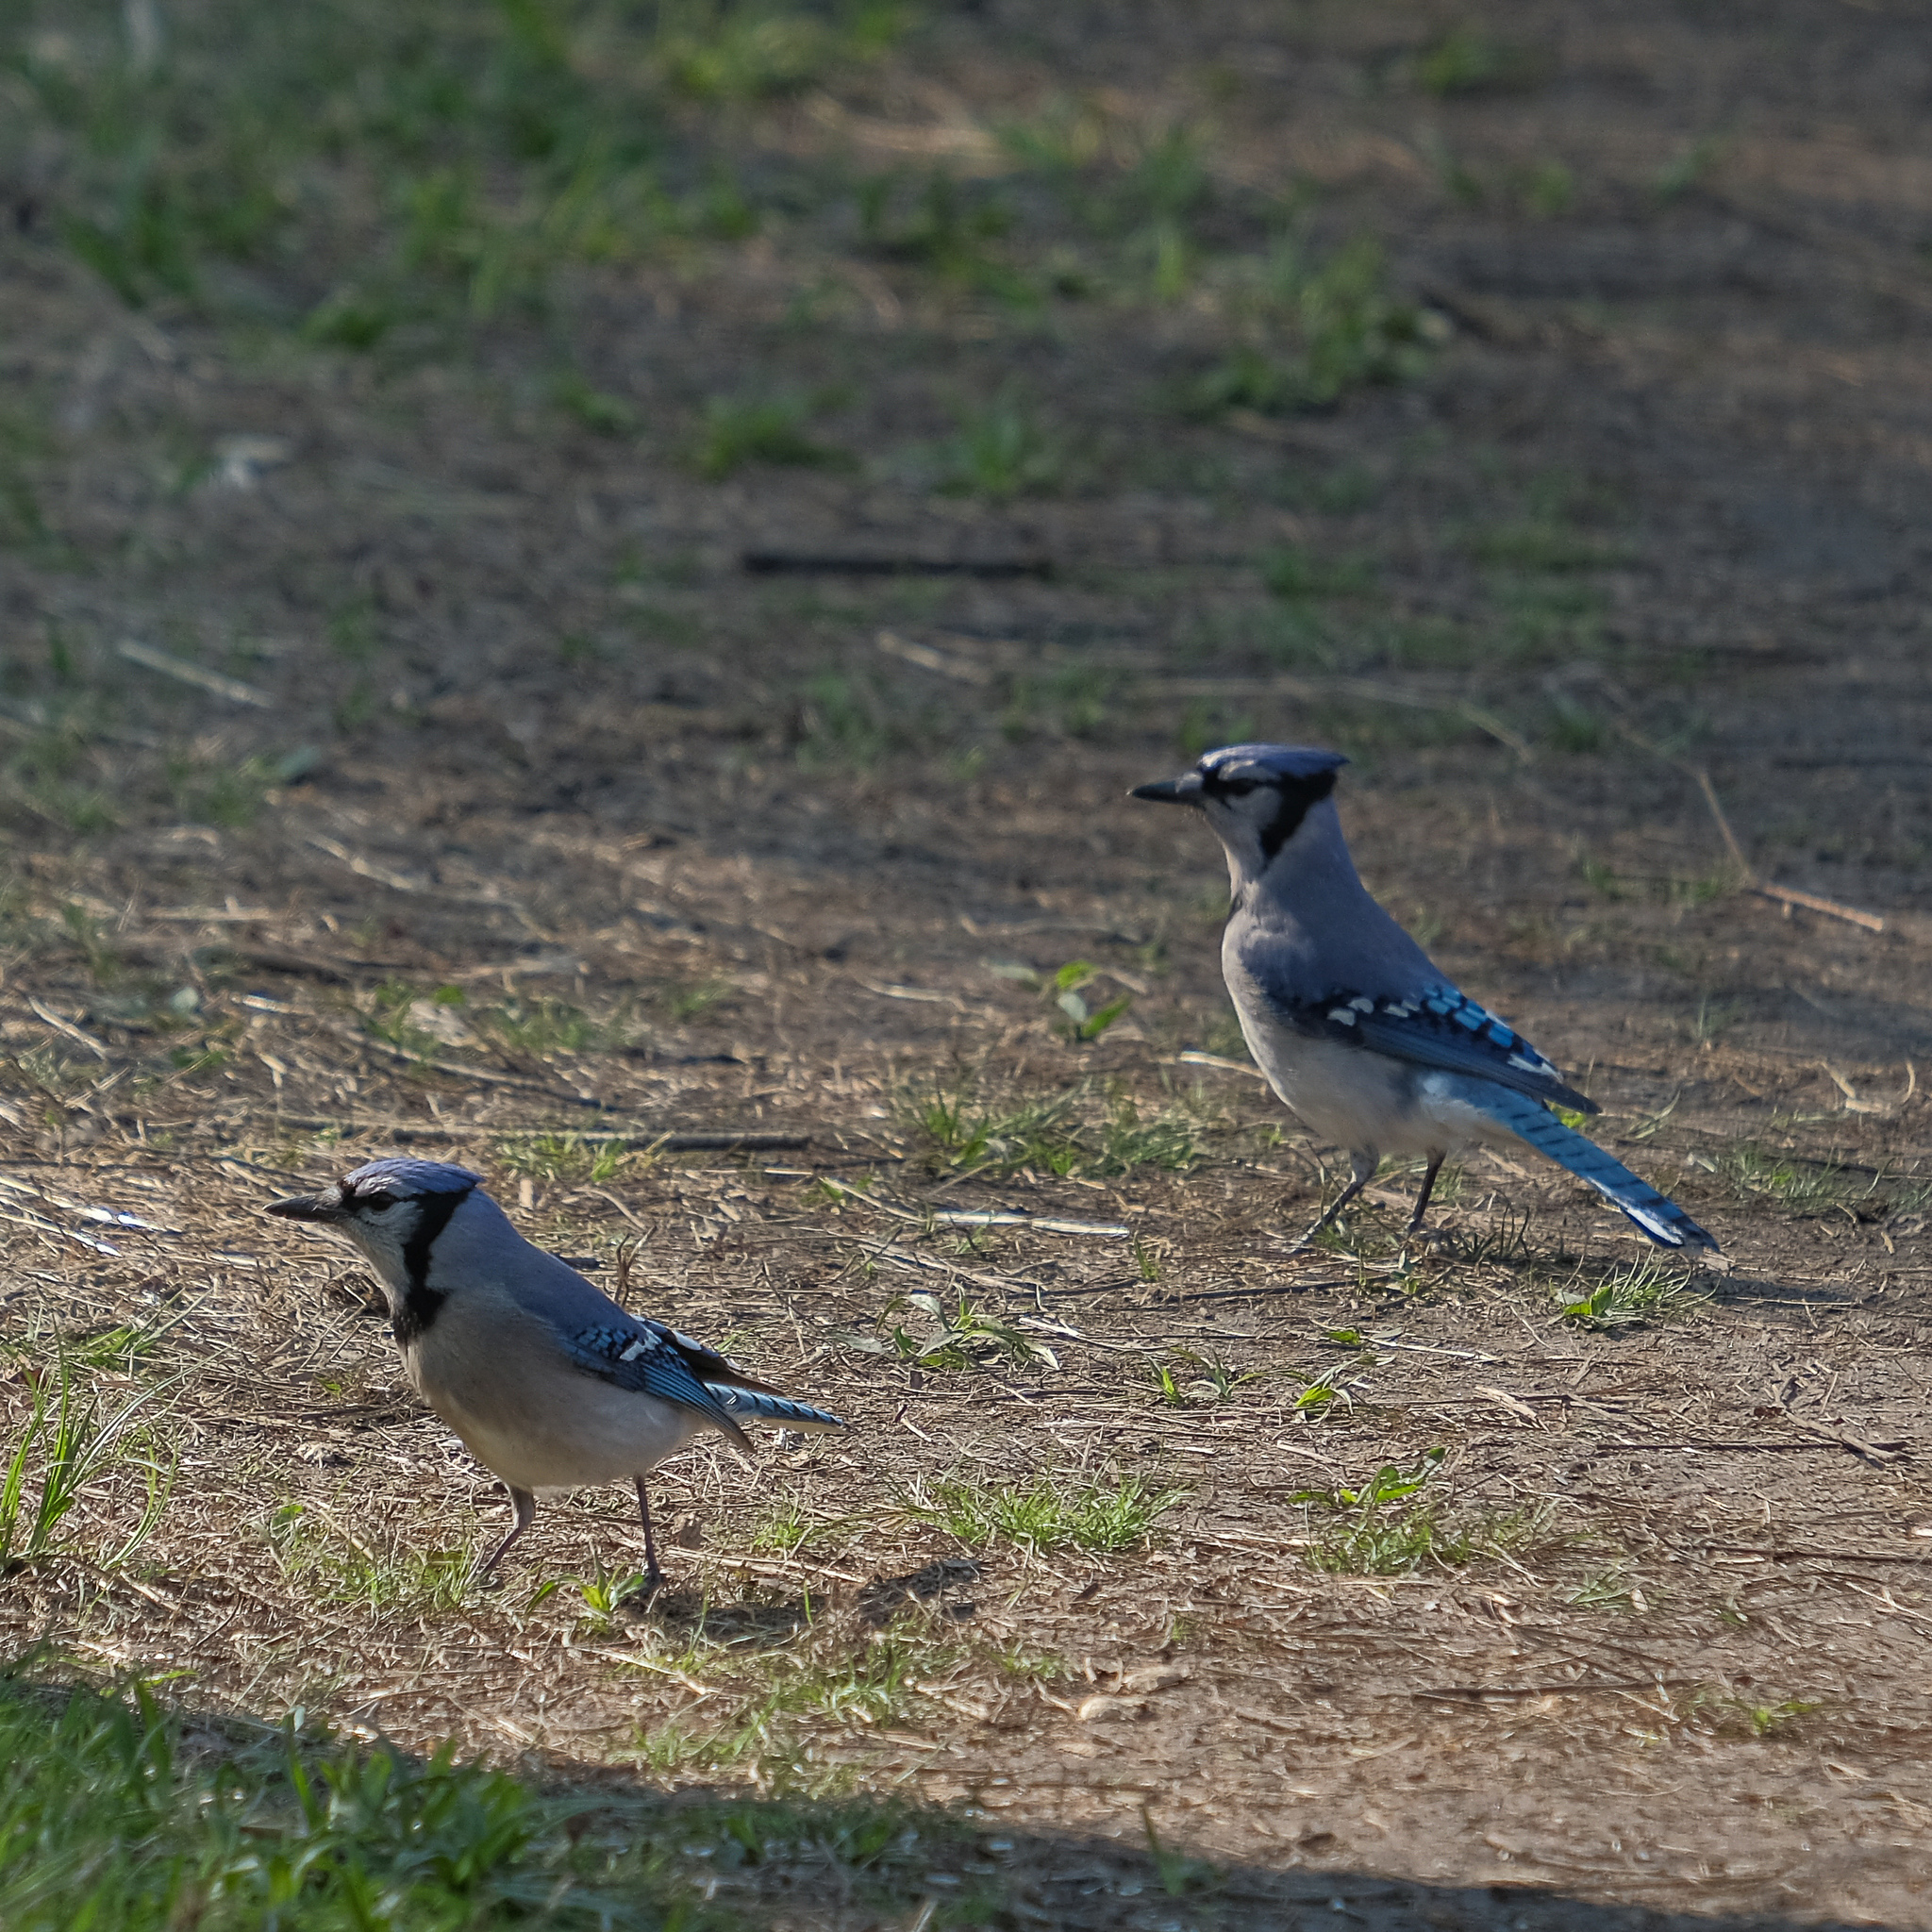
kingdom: Animalia
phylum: Chordata
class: Aves
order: Passeriformes
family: Corvidae
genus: Cyanocitta
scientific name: Cyanocitta cristata
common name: Blue jay
